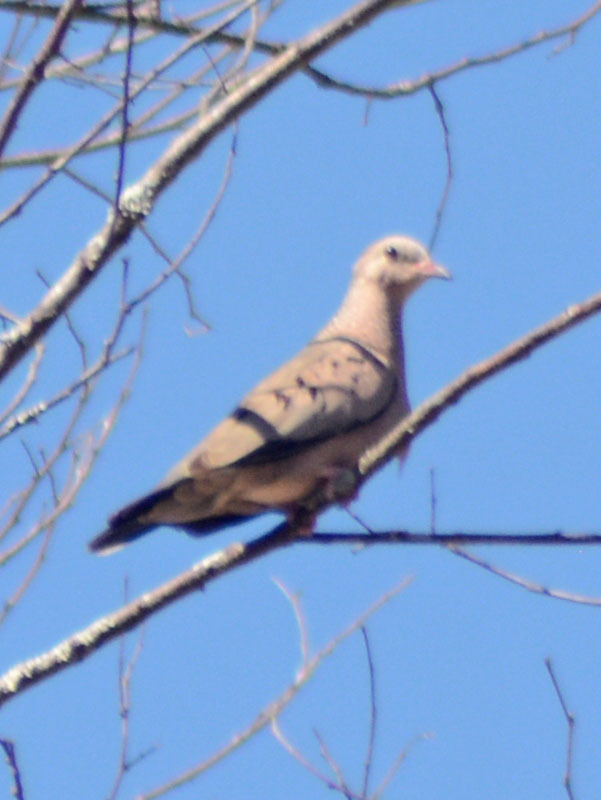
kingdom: Animalia
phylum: Chordata
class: Aves
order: Columbiformes
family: Columbidae
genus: Columbina
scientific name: Columbina passerina
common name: Common ground-dove
